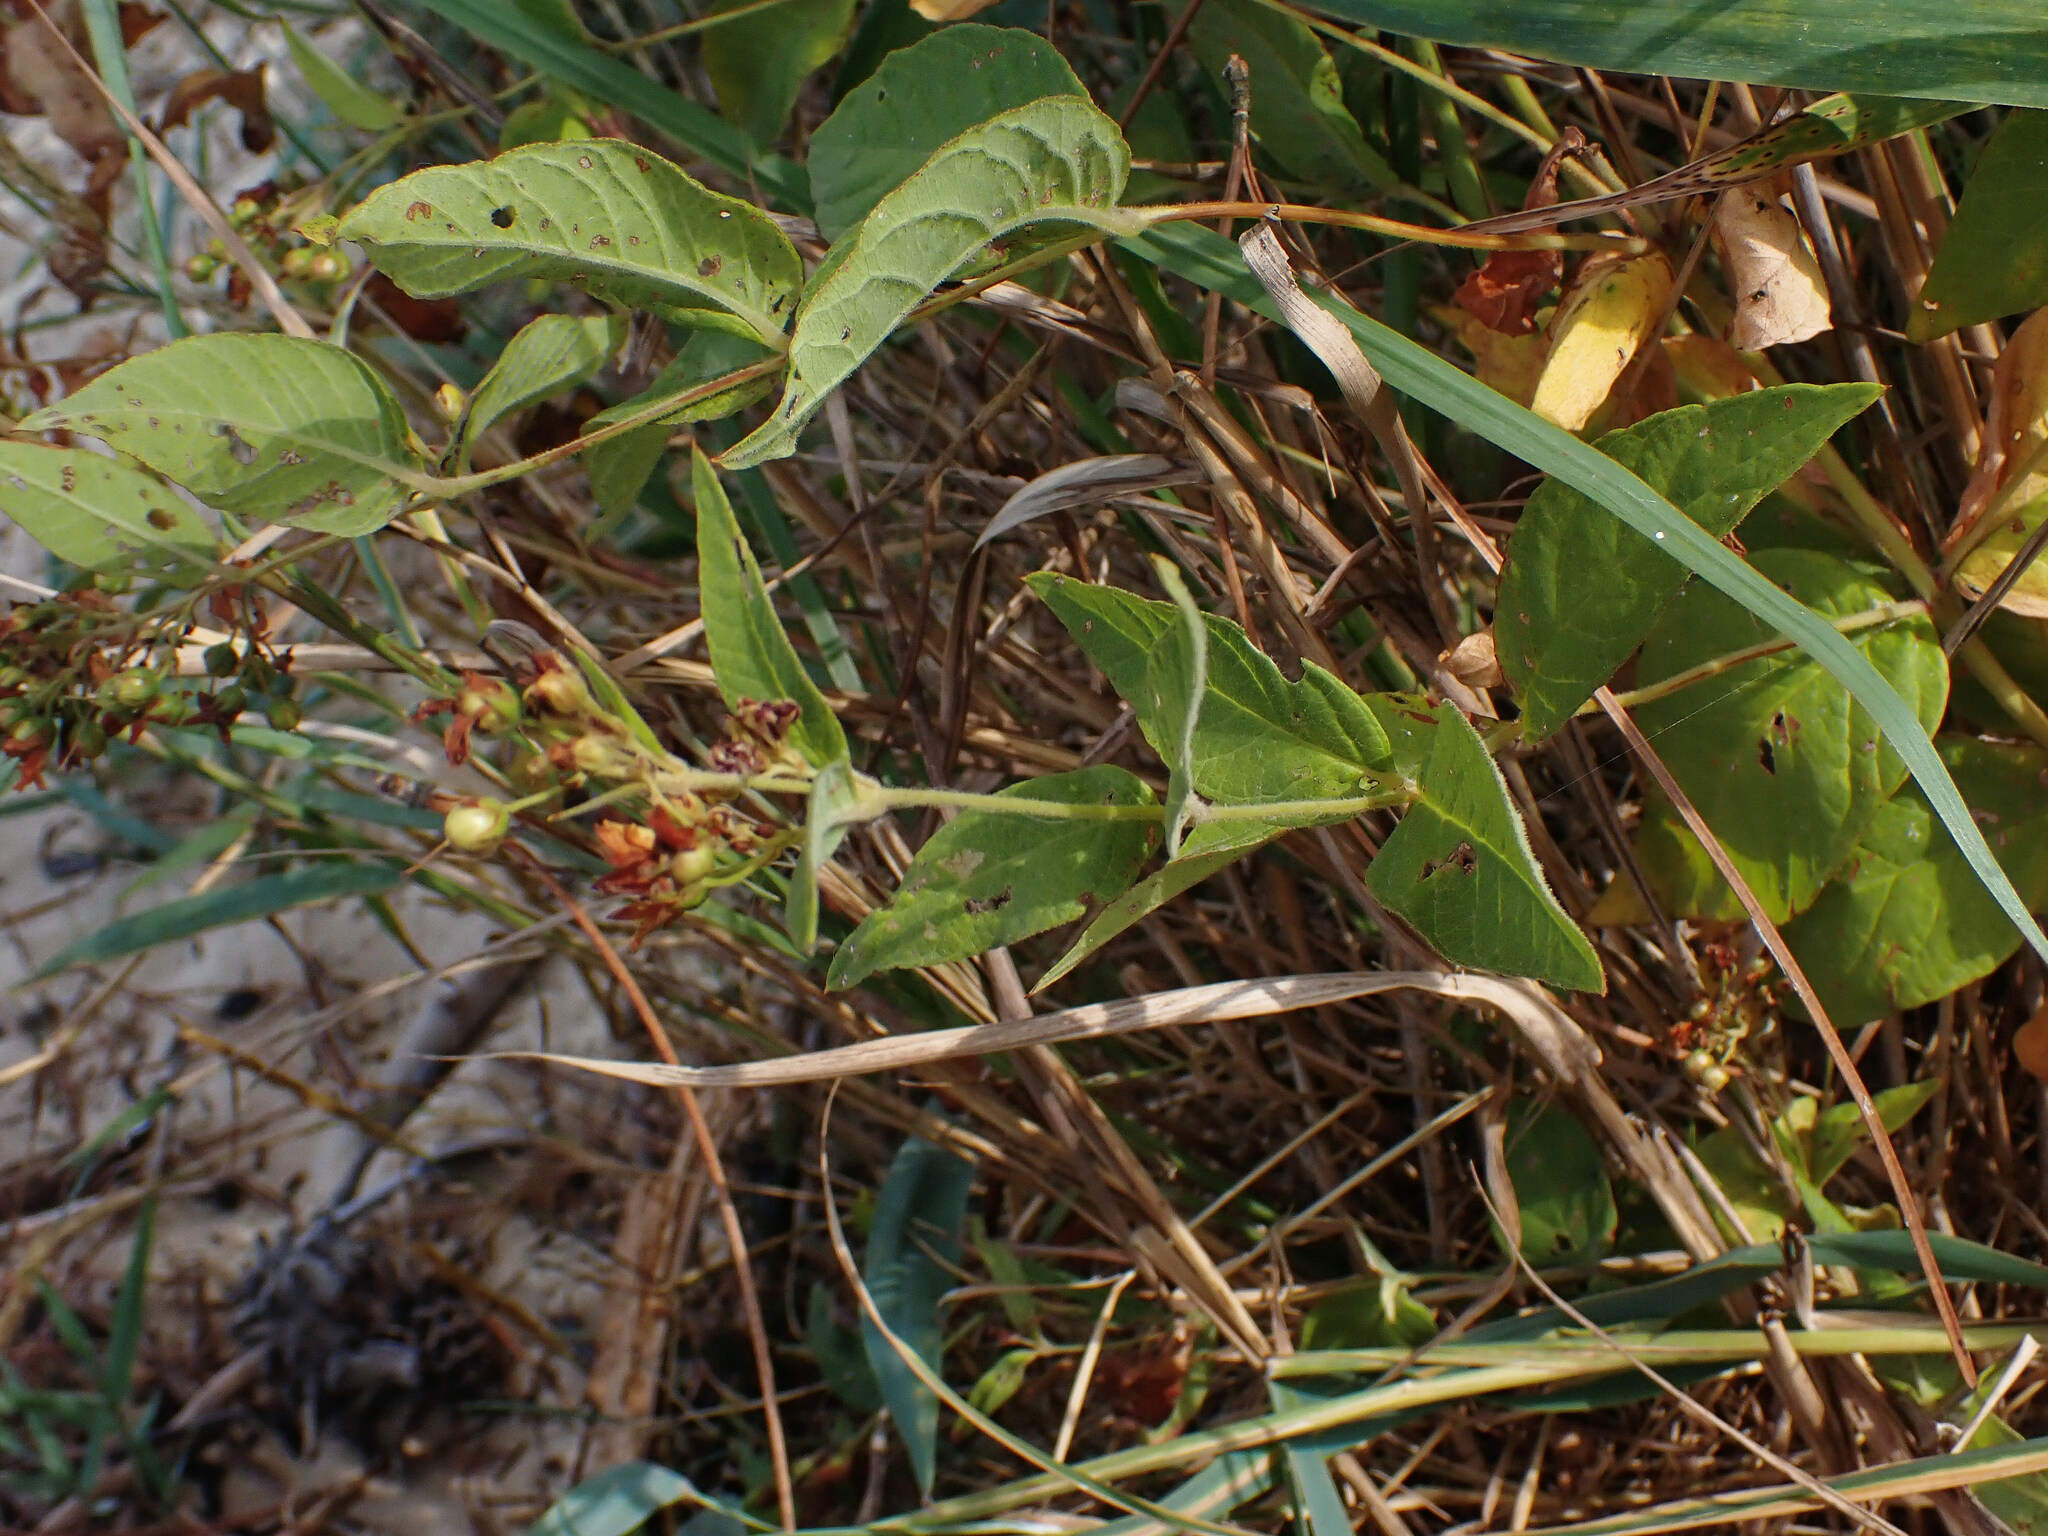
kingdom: Plantae
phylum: Tracheophyta
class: Magnoliopsida
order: Ericales
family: Primulaceae
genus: Lysimachia
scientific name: Lysimachia vulgaris
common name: Yellow loosestrife
